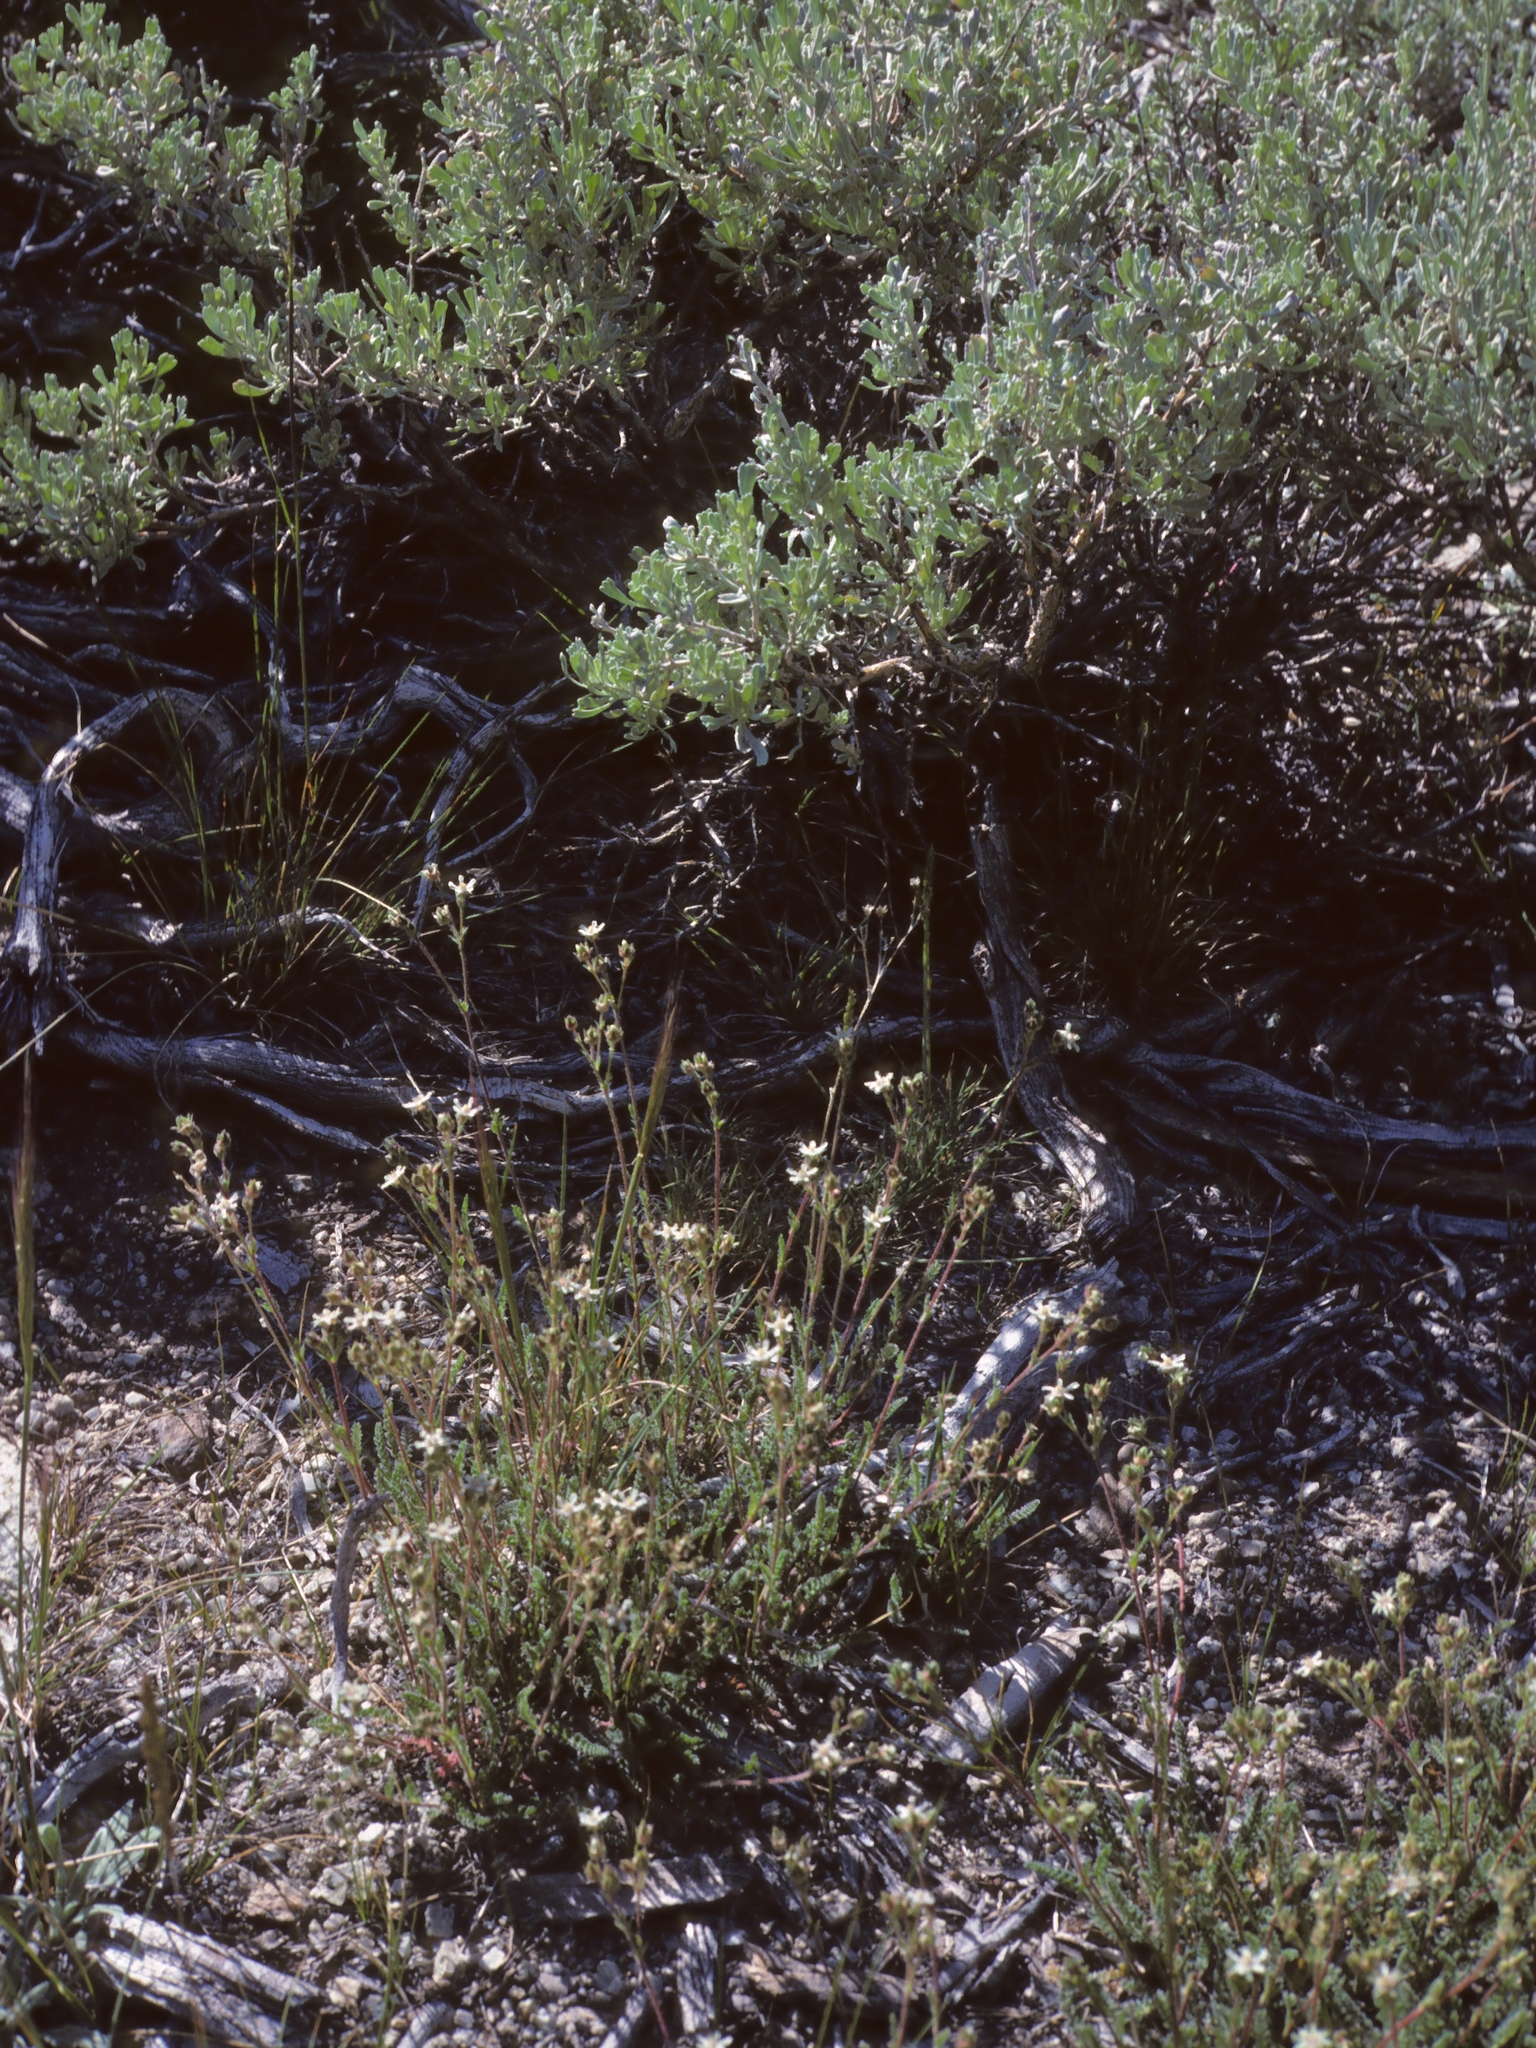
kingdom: Plantae
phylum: Tracheophyta
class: Magnoliopsida
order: Rosales
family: Rosaceae
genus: Potentilla
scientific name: Potentilla hispidula
